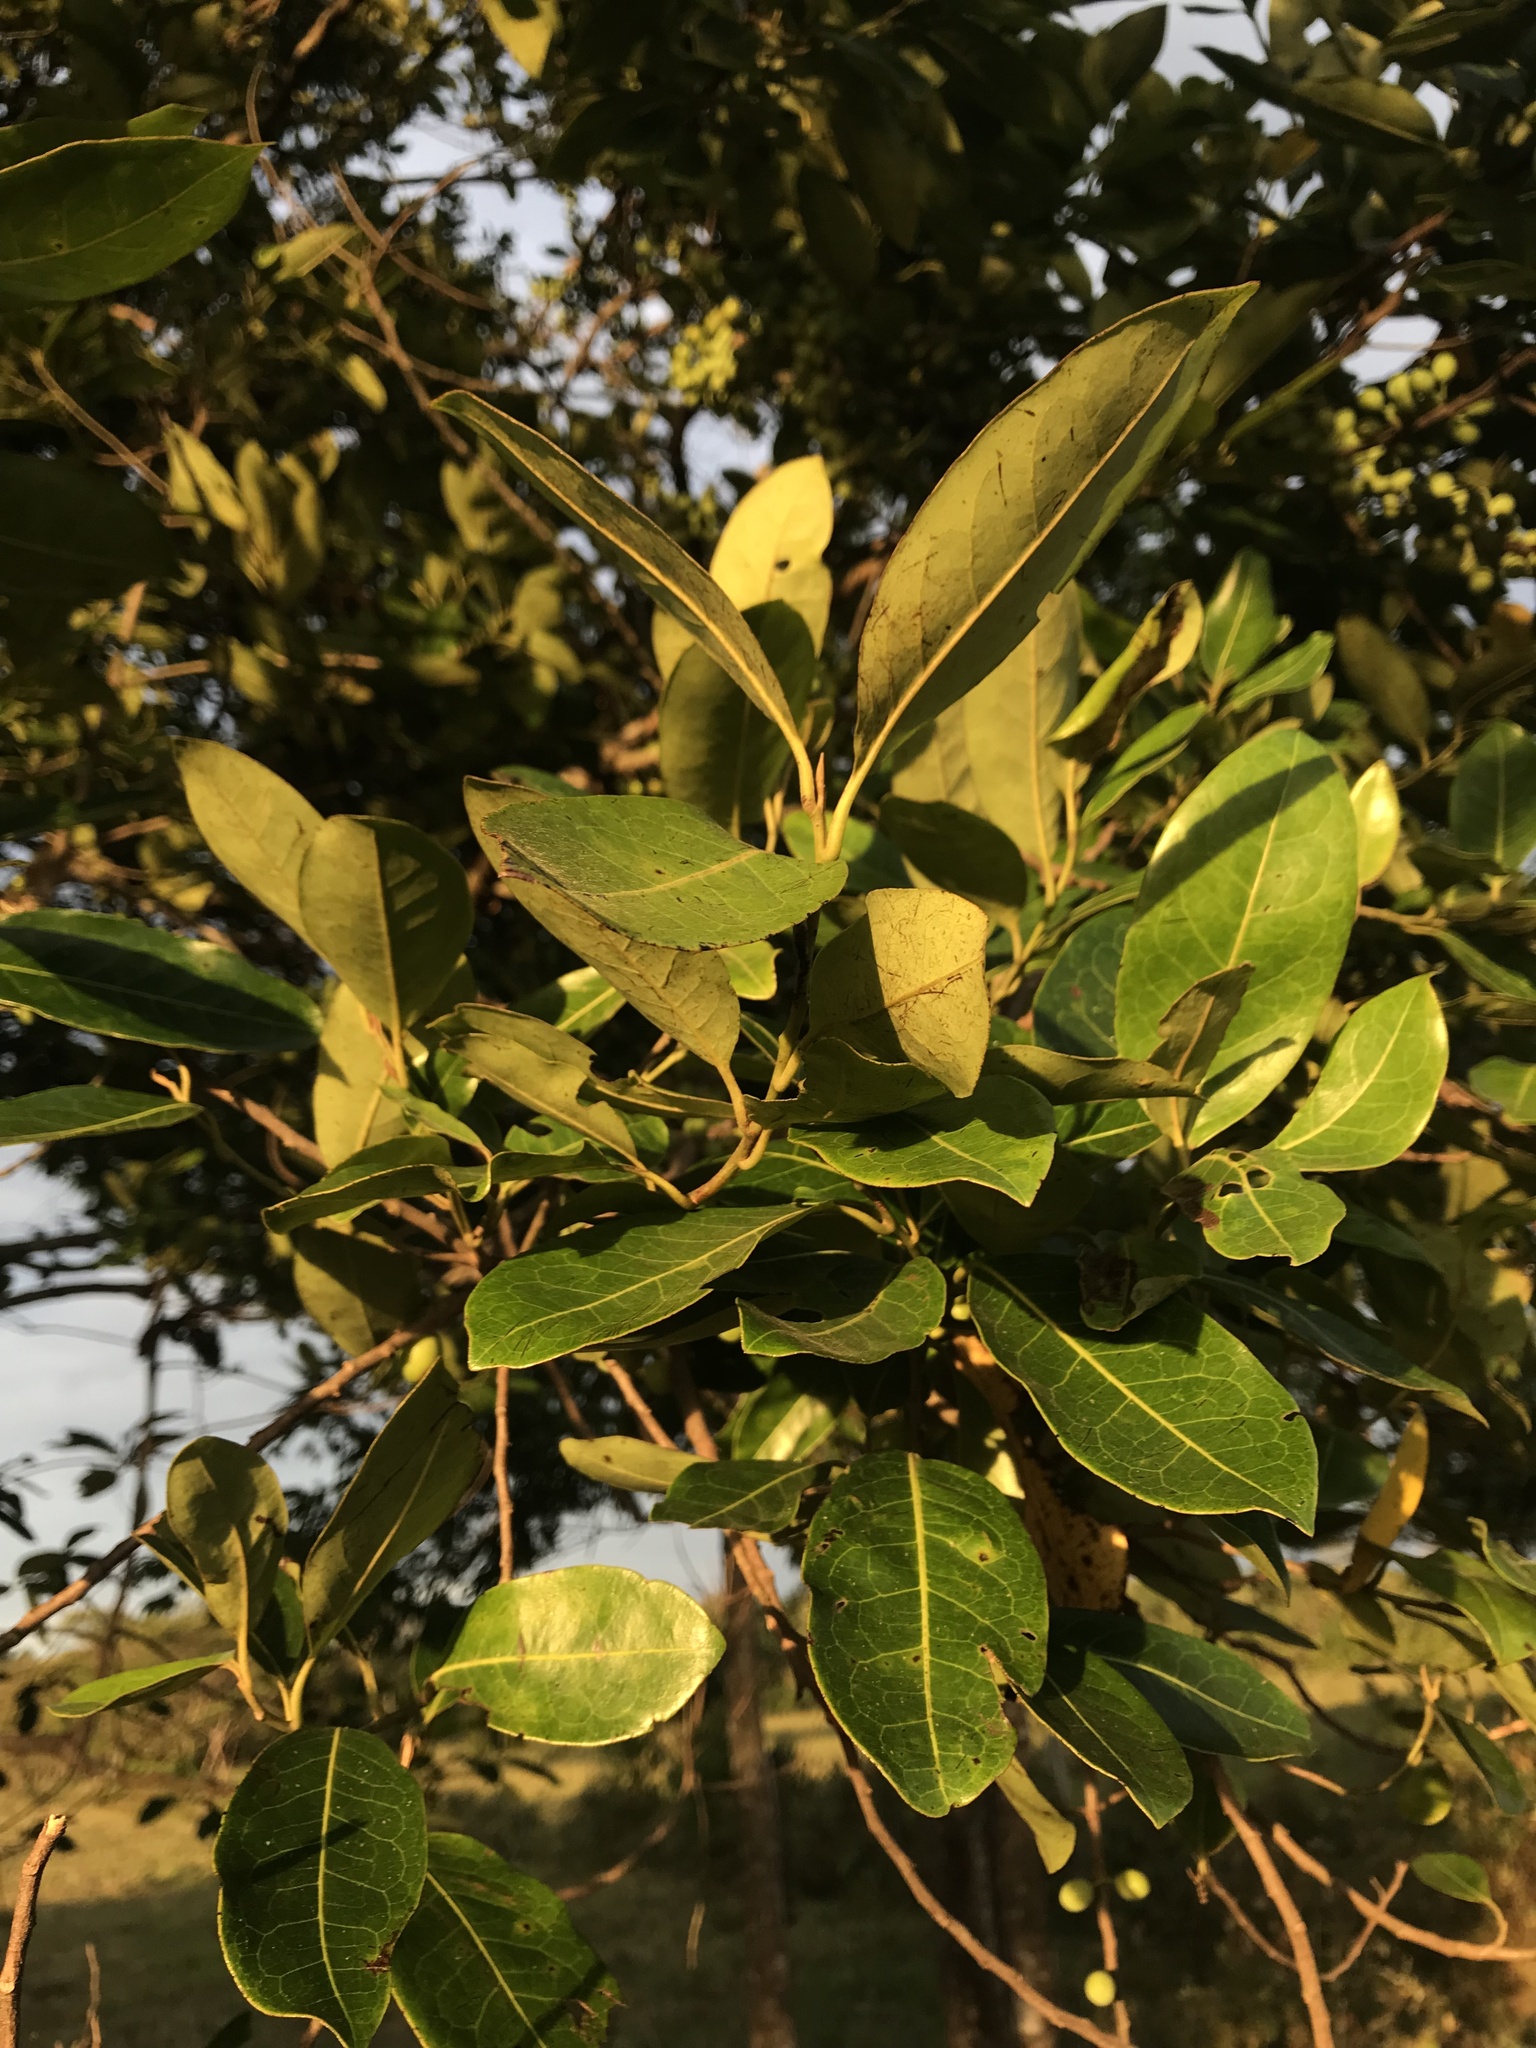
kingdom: Plantae
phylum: Tracheophyta
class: Magnoliopsida
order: Malpighiales
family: Peraceae
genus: Pera
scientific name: Pera arborea
